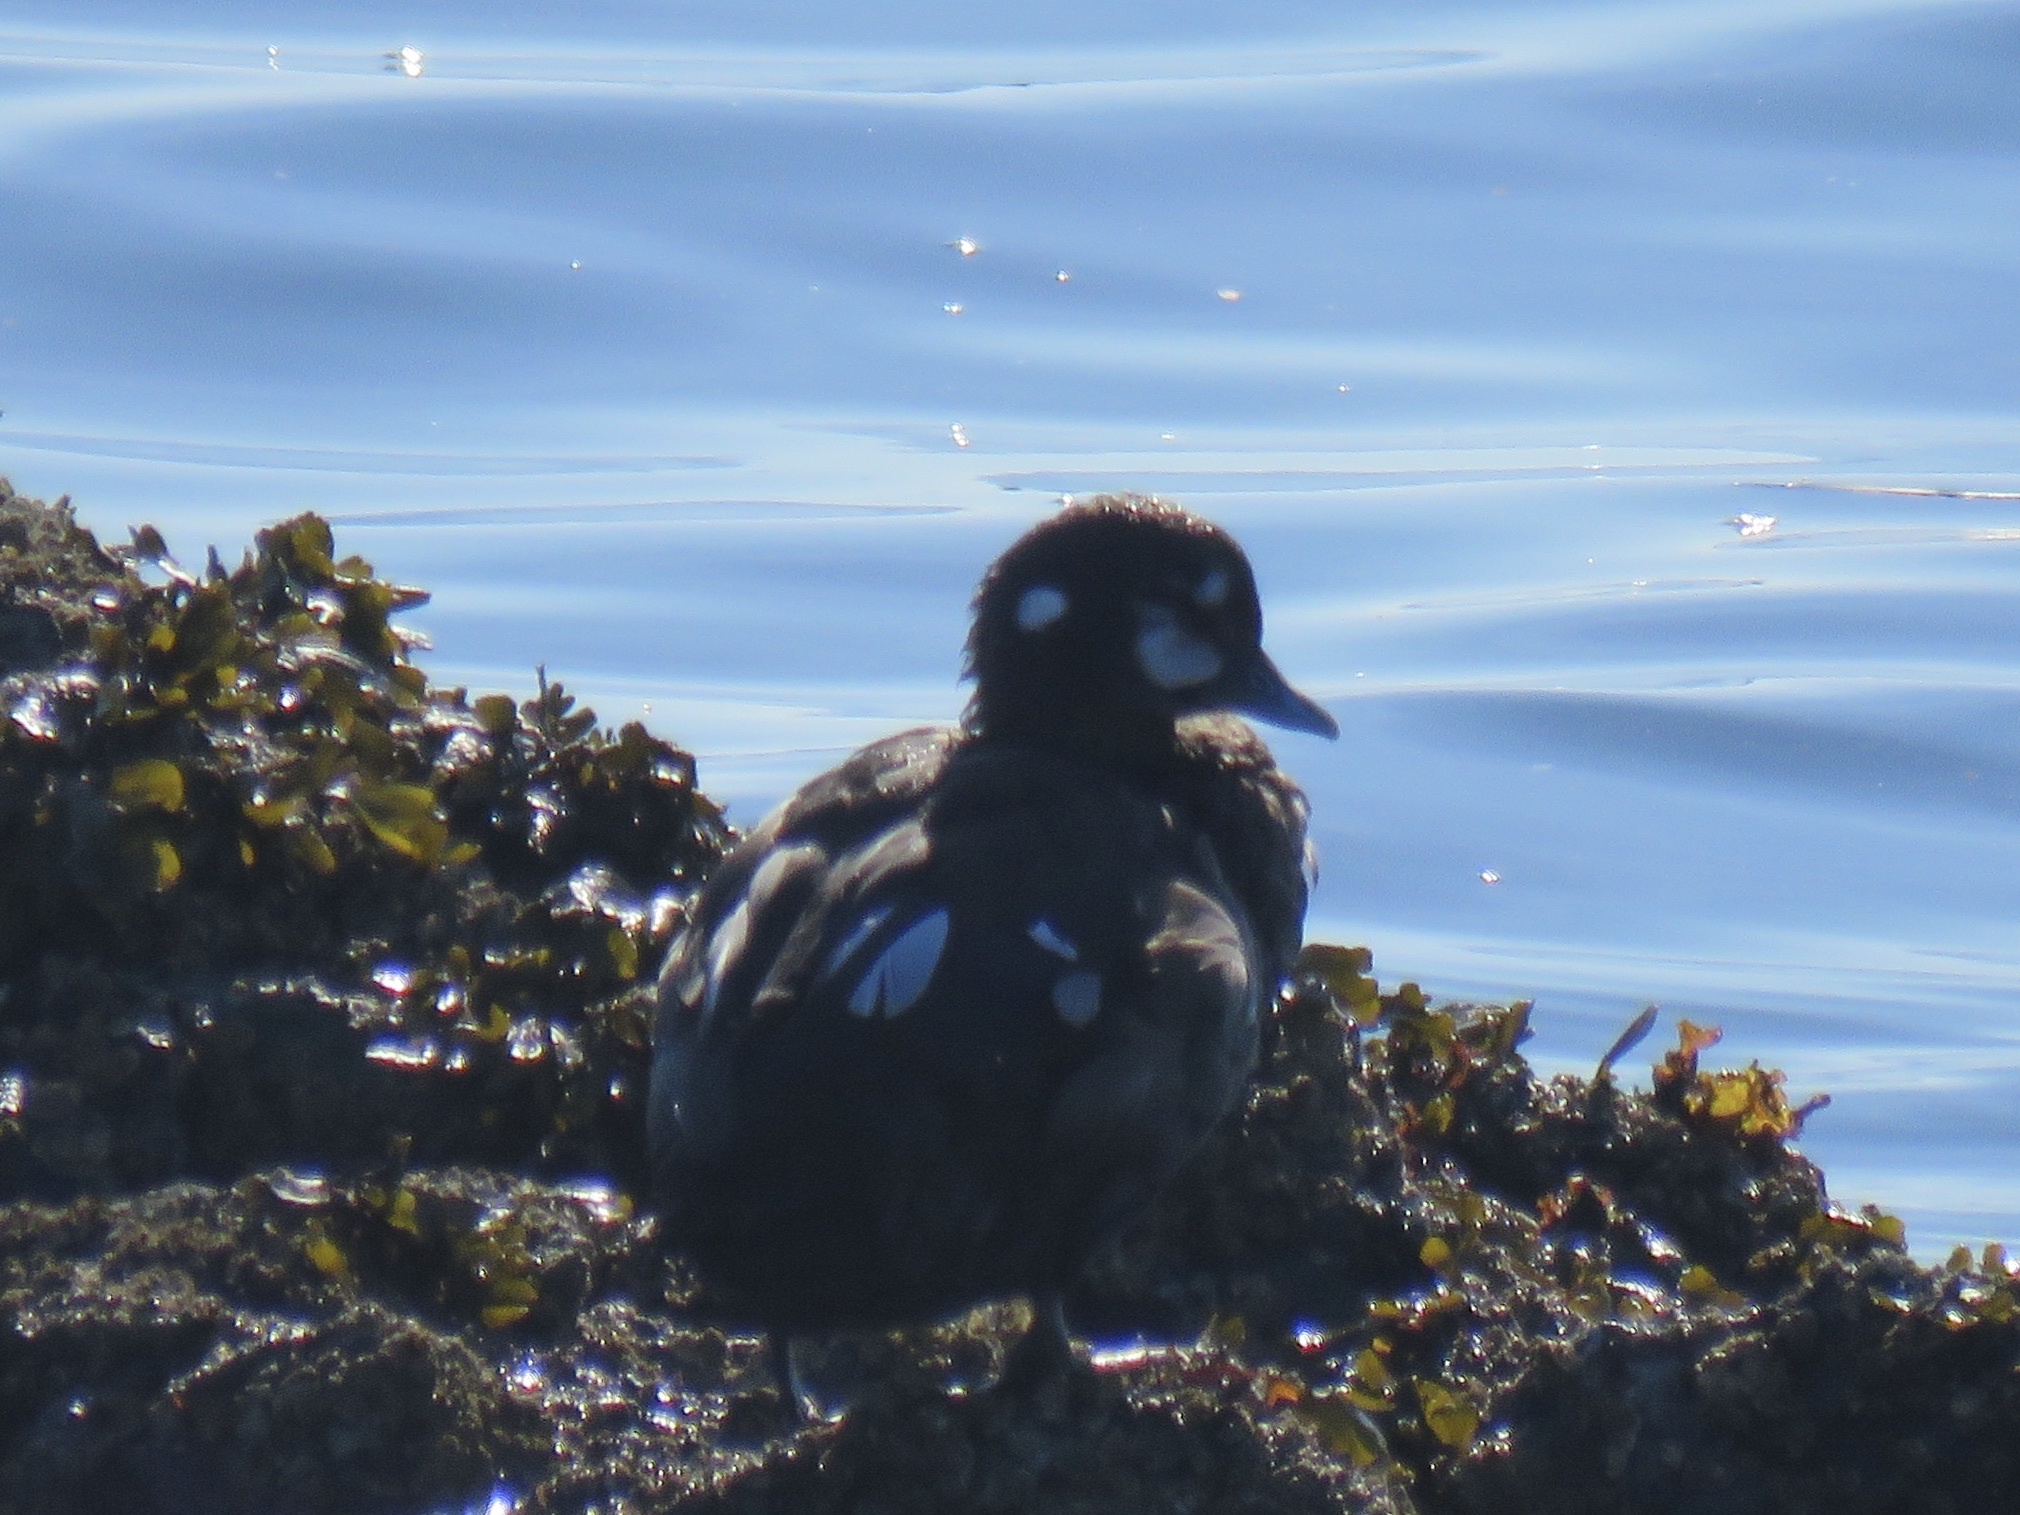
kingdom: Animalia
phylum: Chordata
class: Aves
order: Anseriformes
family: Anatidae
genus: Histrionicus
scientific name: Histrionicus histrionicus
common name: Harlequin duck
